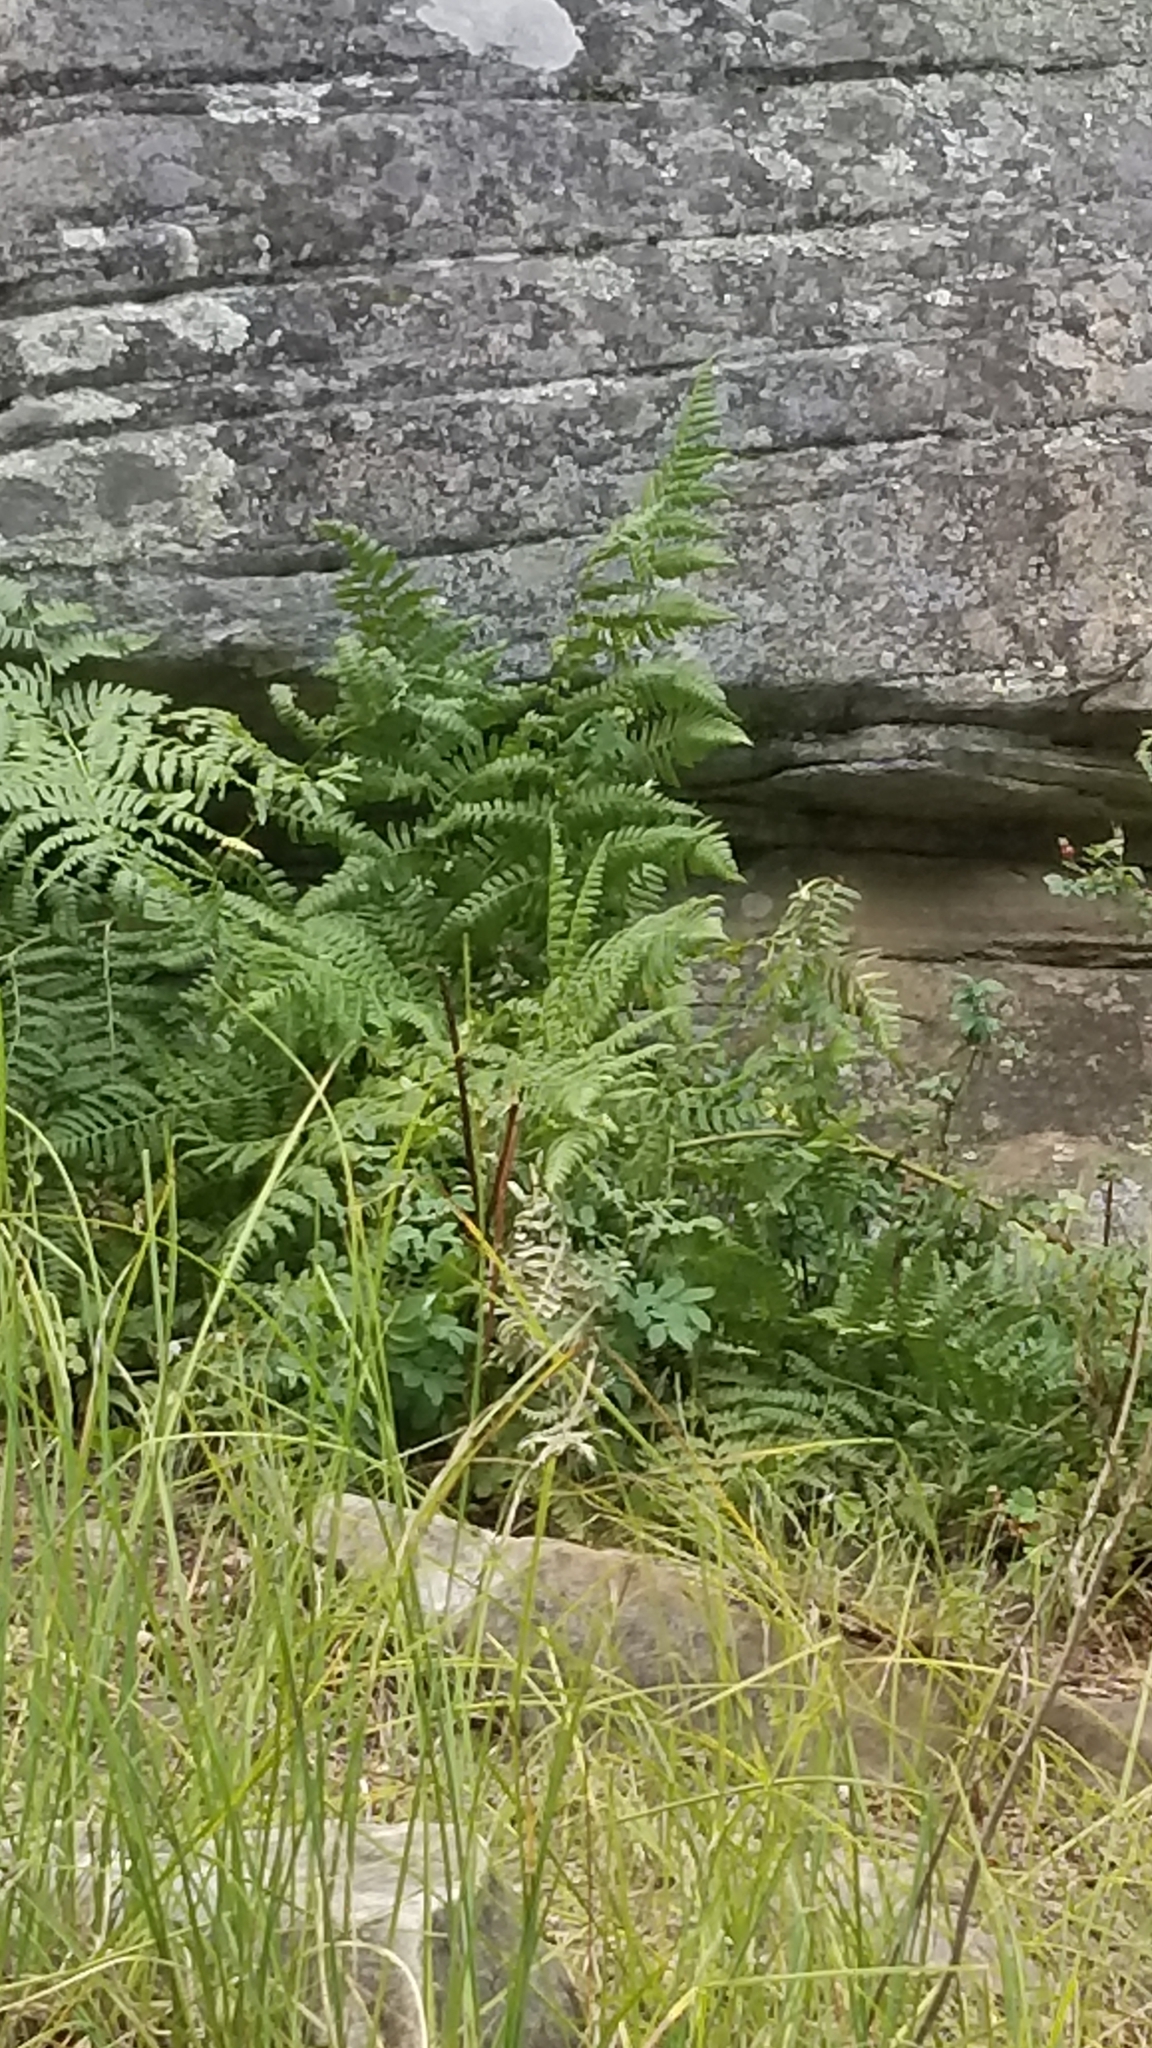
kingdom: Plantae
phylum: Tracheophyta
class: Polypodiopsida
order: Polypodiales
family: Dennstaedtiaceae
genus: Pteridium
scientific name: Pteridium aquilinum
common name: Bracken
